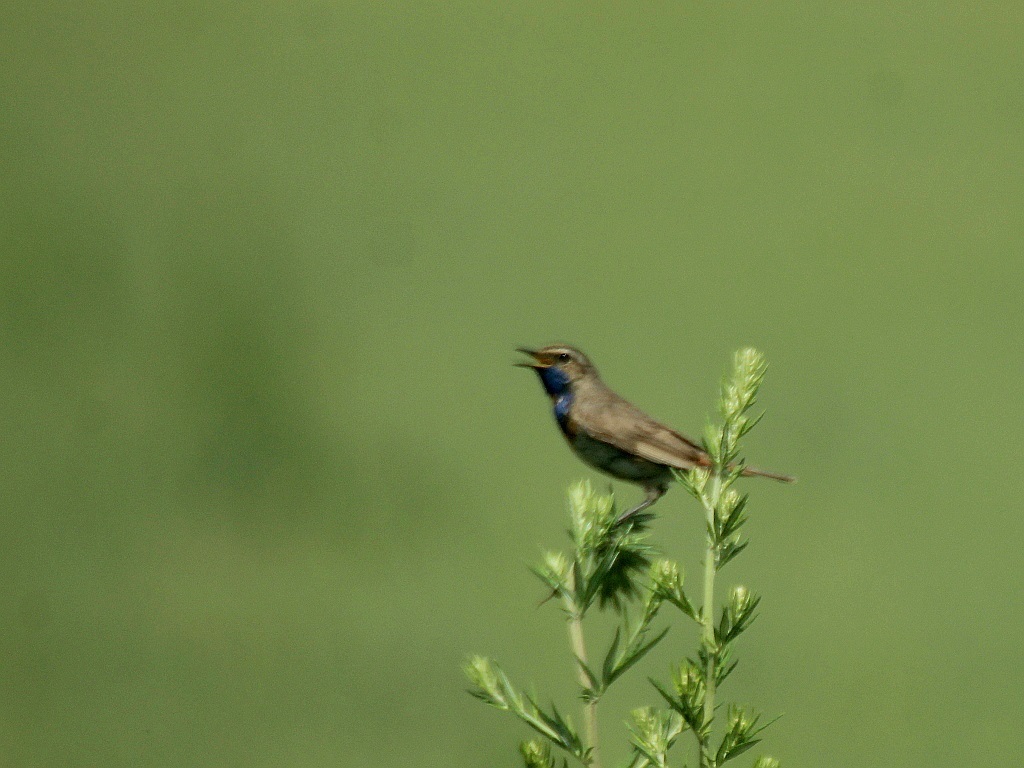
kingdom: Animalia
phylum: Chordata
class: Aves
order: Passeriformes
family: Muscicapidae
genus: Luscinia
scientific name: Luscinia svecica
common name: Bluethroat
